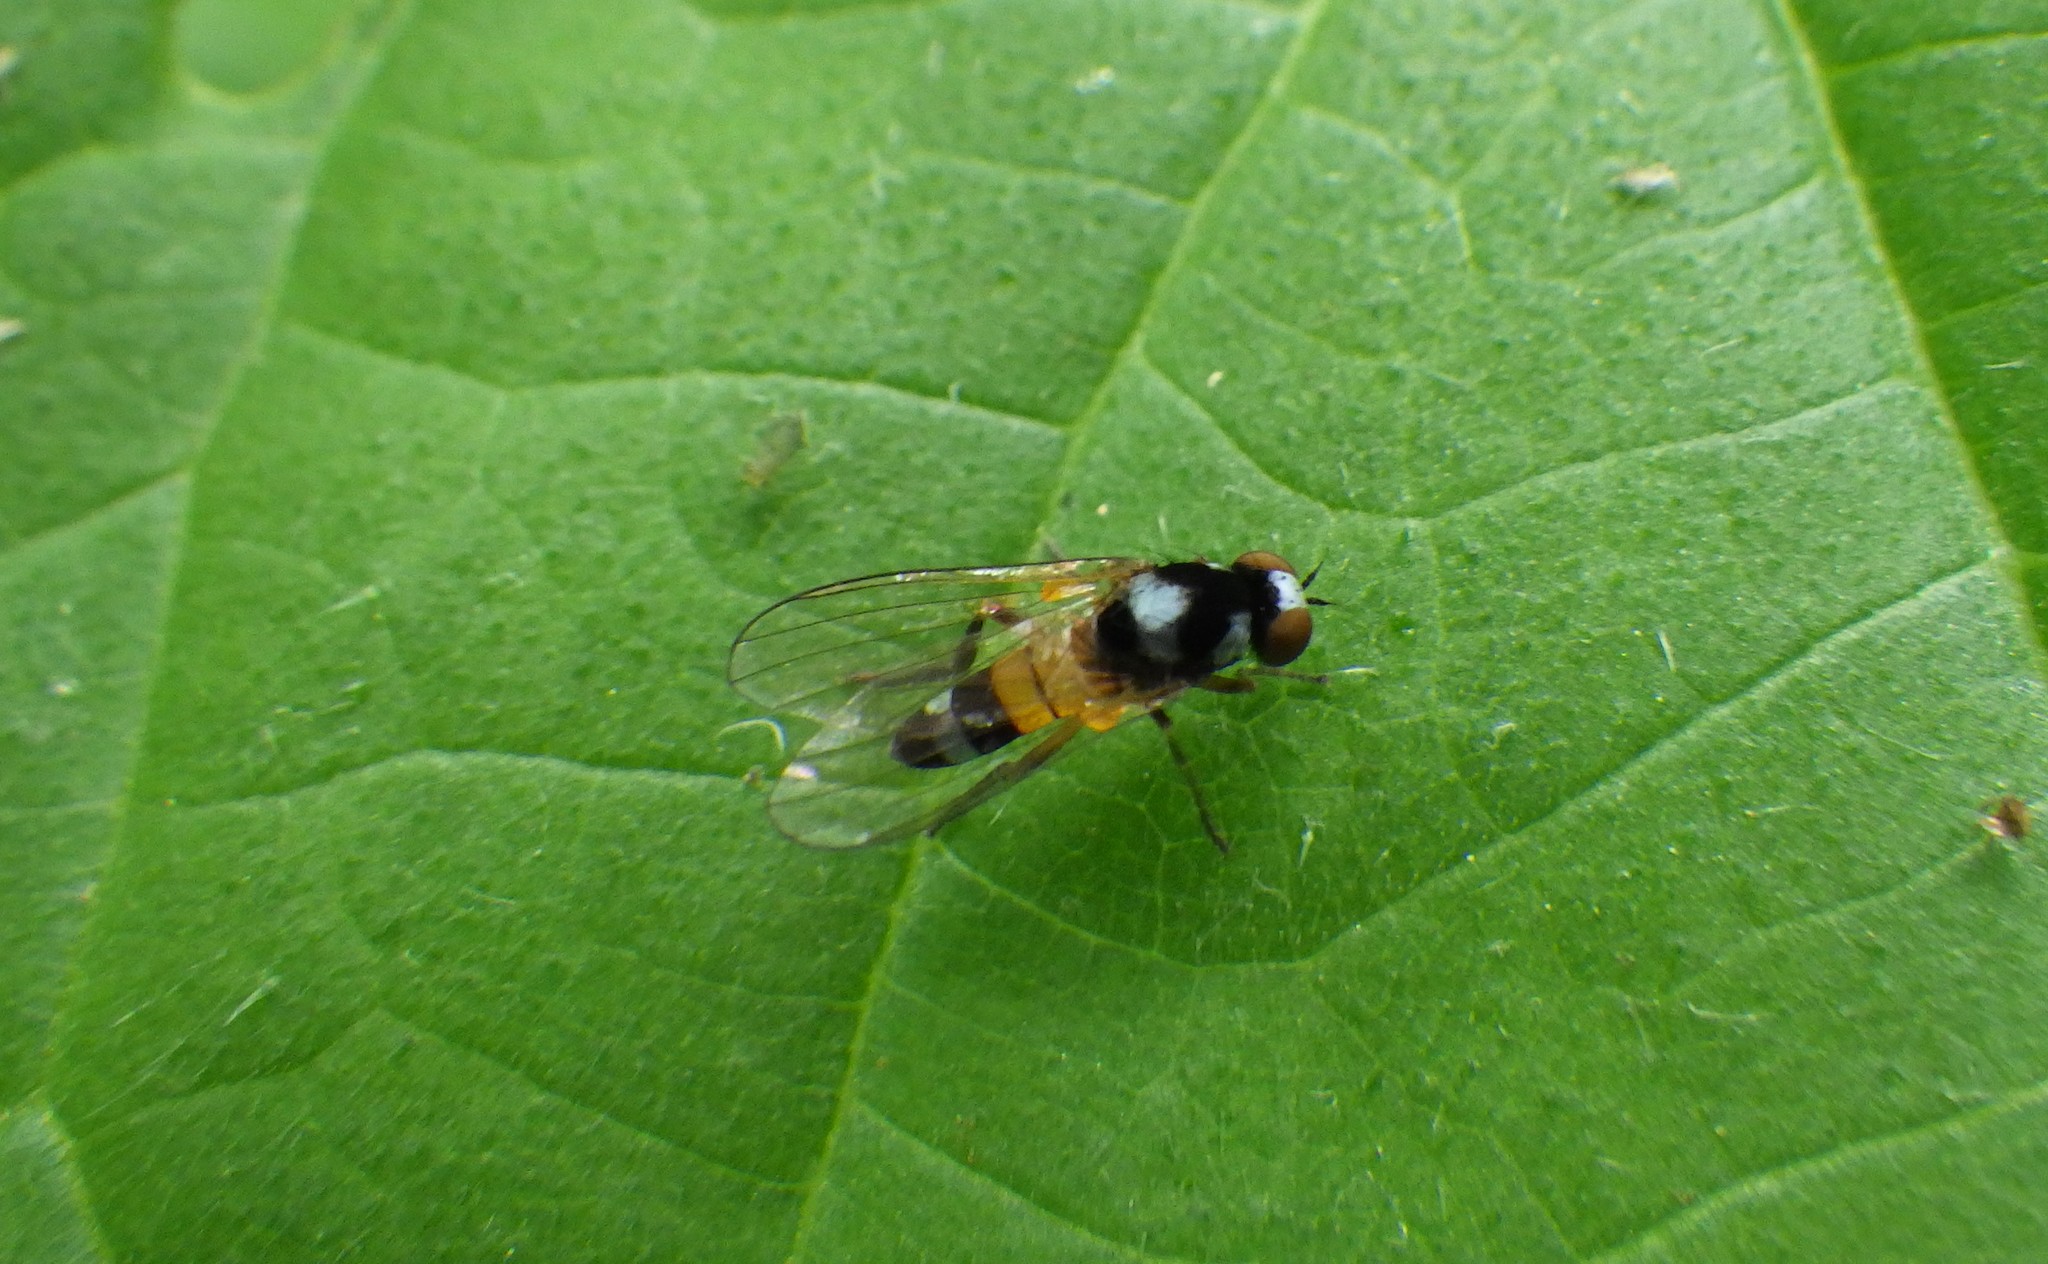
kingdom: Animalia
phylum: Arthropoda
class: Insecta
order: Diptera
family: Platypezidae
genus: Callomyia
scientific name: Callomyia amoena
